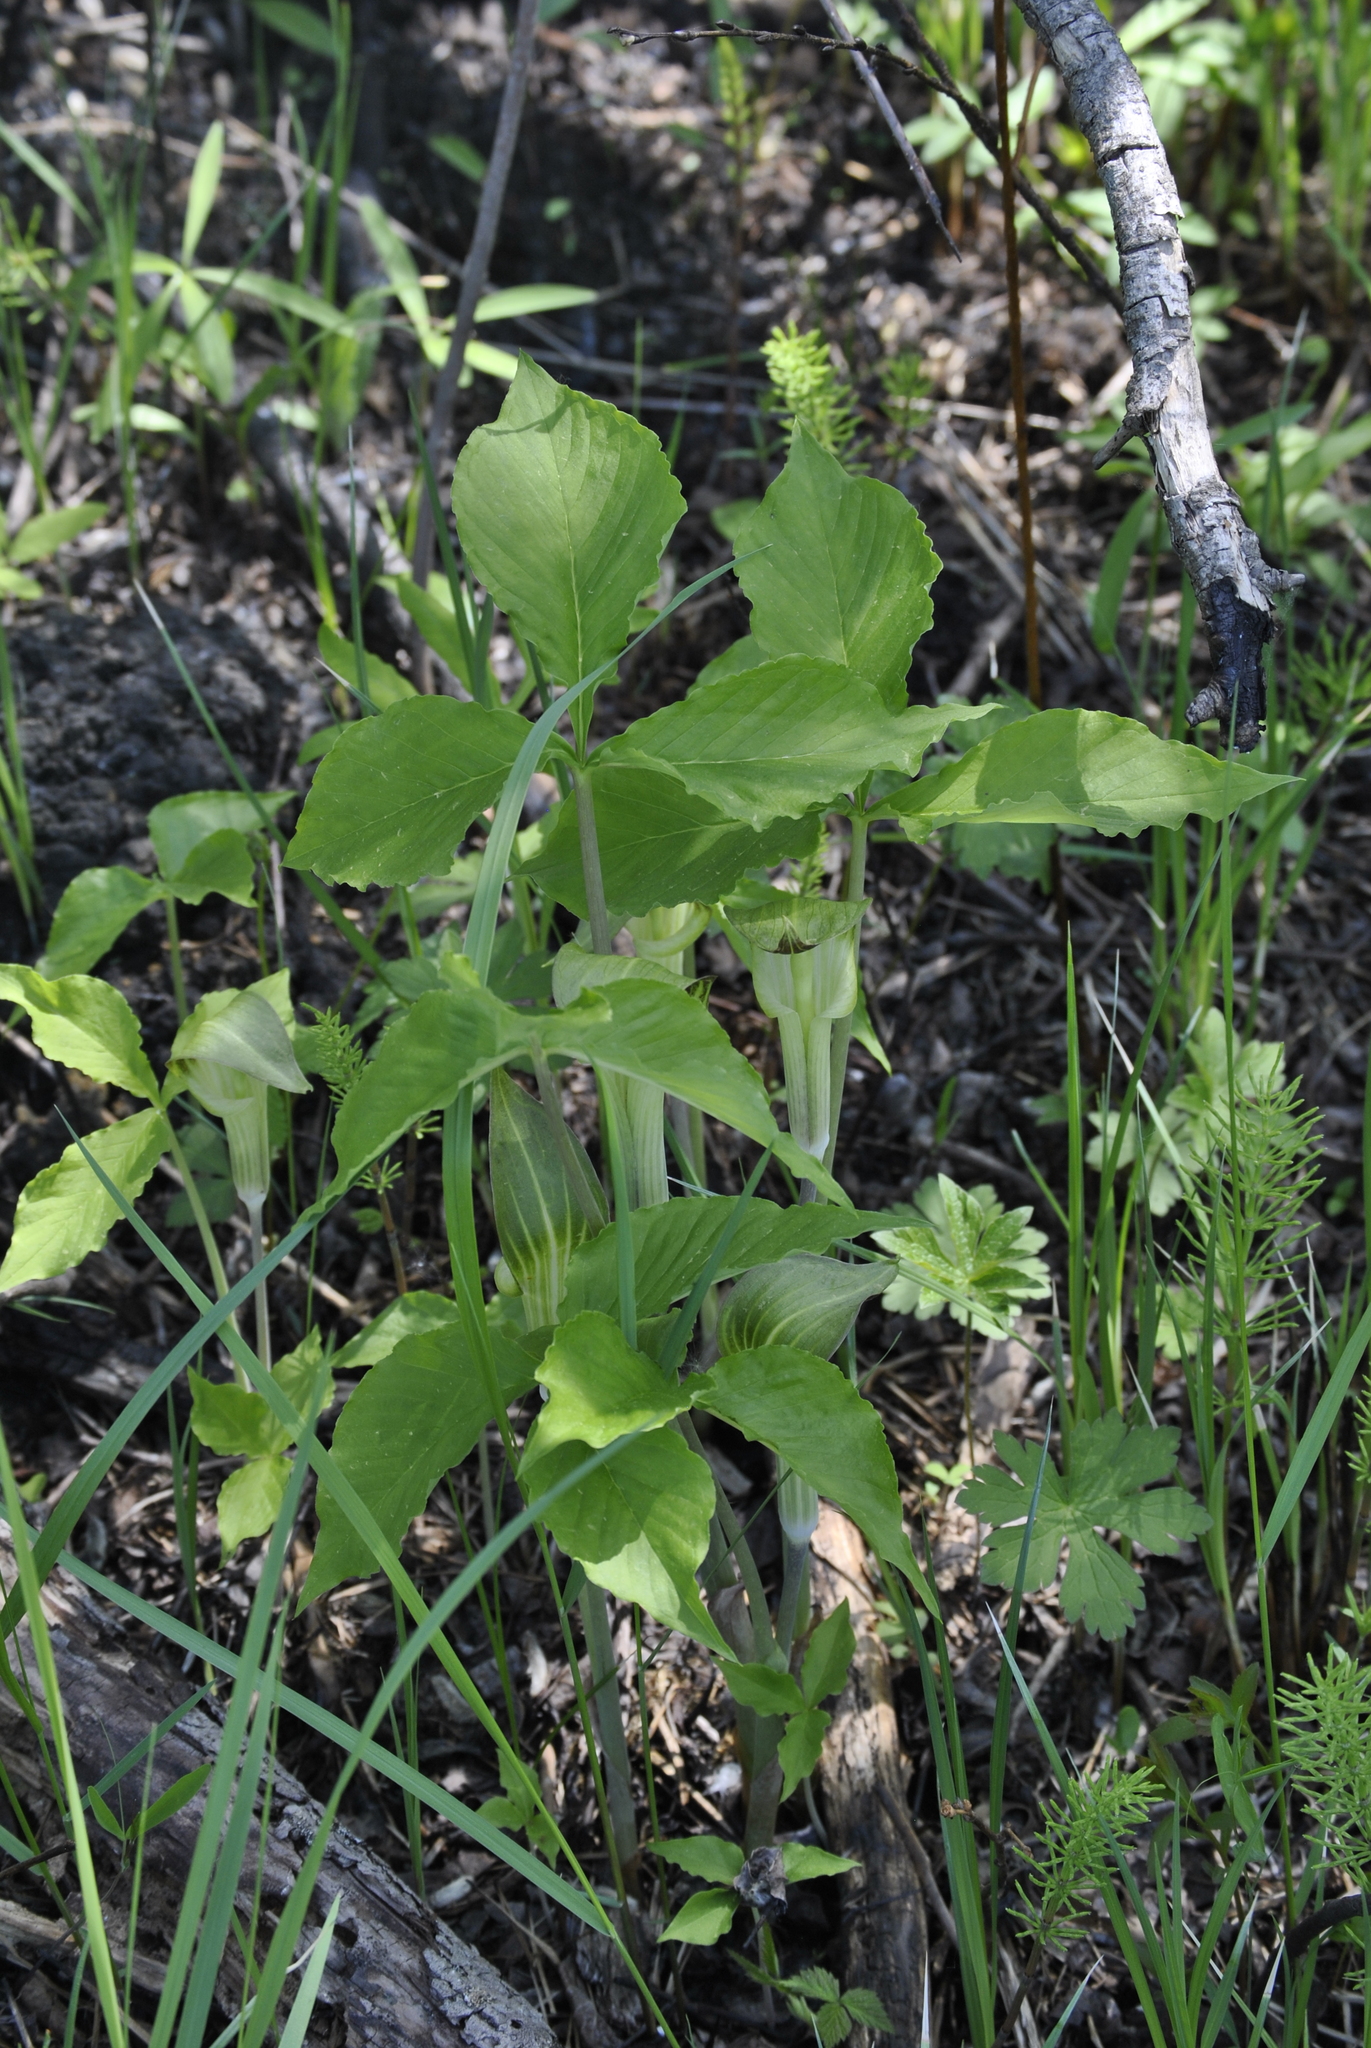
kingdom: Plantae
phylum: Tracheophyta
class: Liliopsida
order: Alismatales
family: Araceae
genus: Arisaema
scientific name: Arisaema triphyllum
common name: Jack-in-the-pulpit
